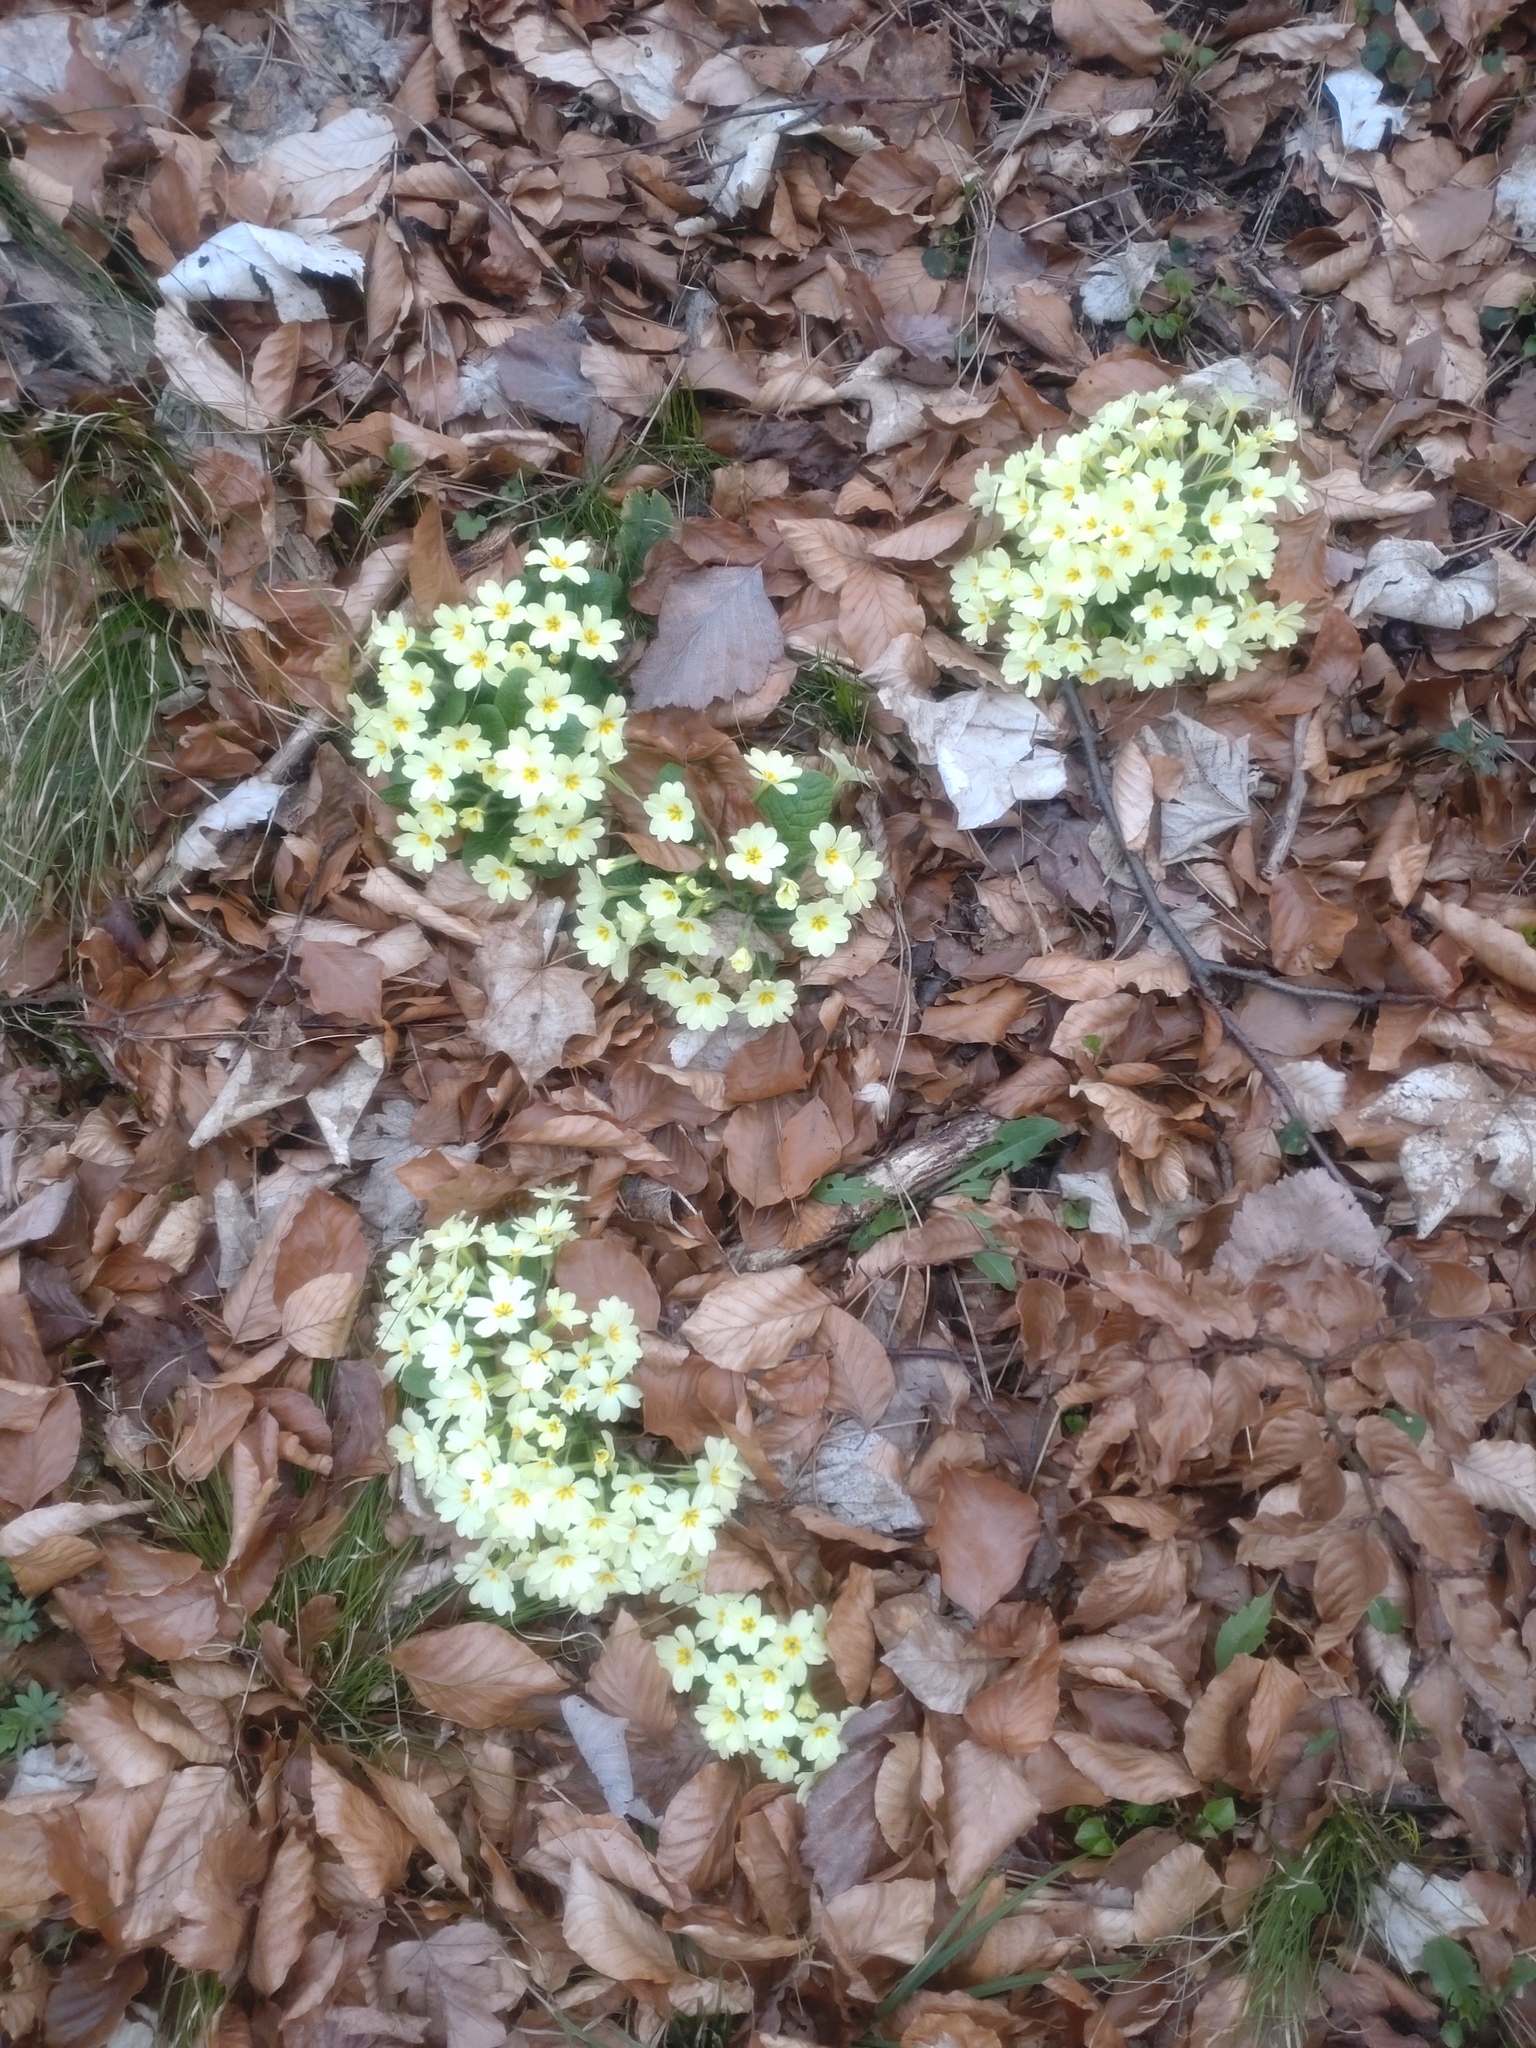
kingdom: Plantae
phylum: Tracheophyta
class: Magnoliopsida
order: Ericales
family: Primulaceae
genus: Primula
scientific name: Primula vulgaris
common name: Primrose
